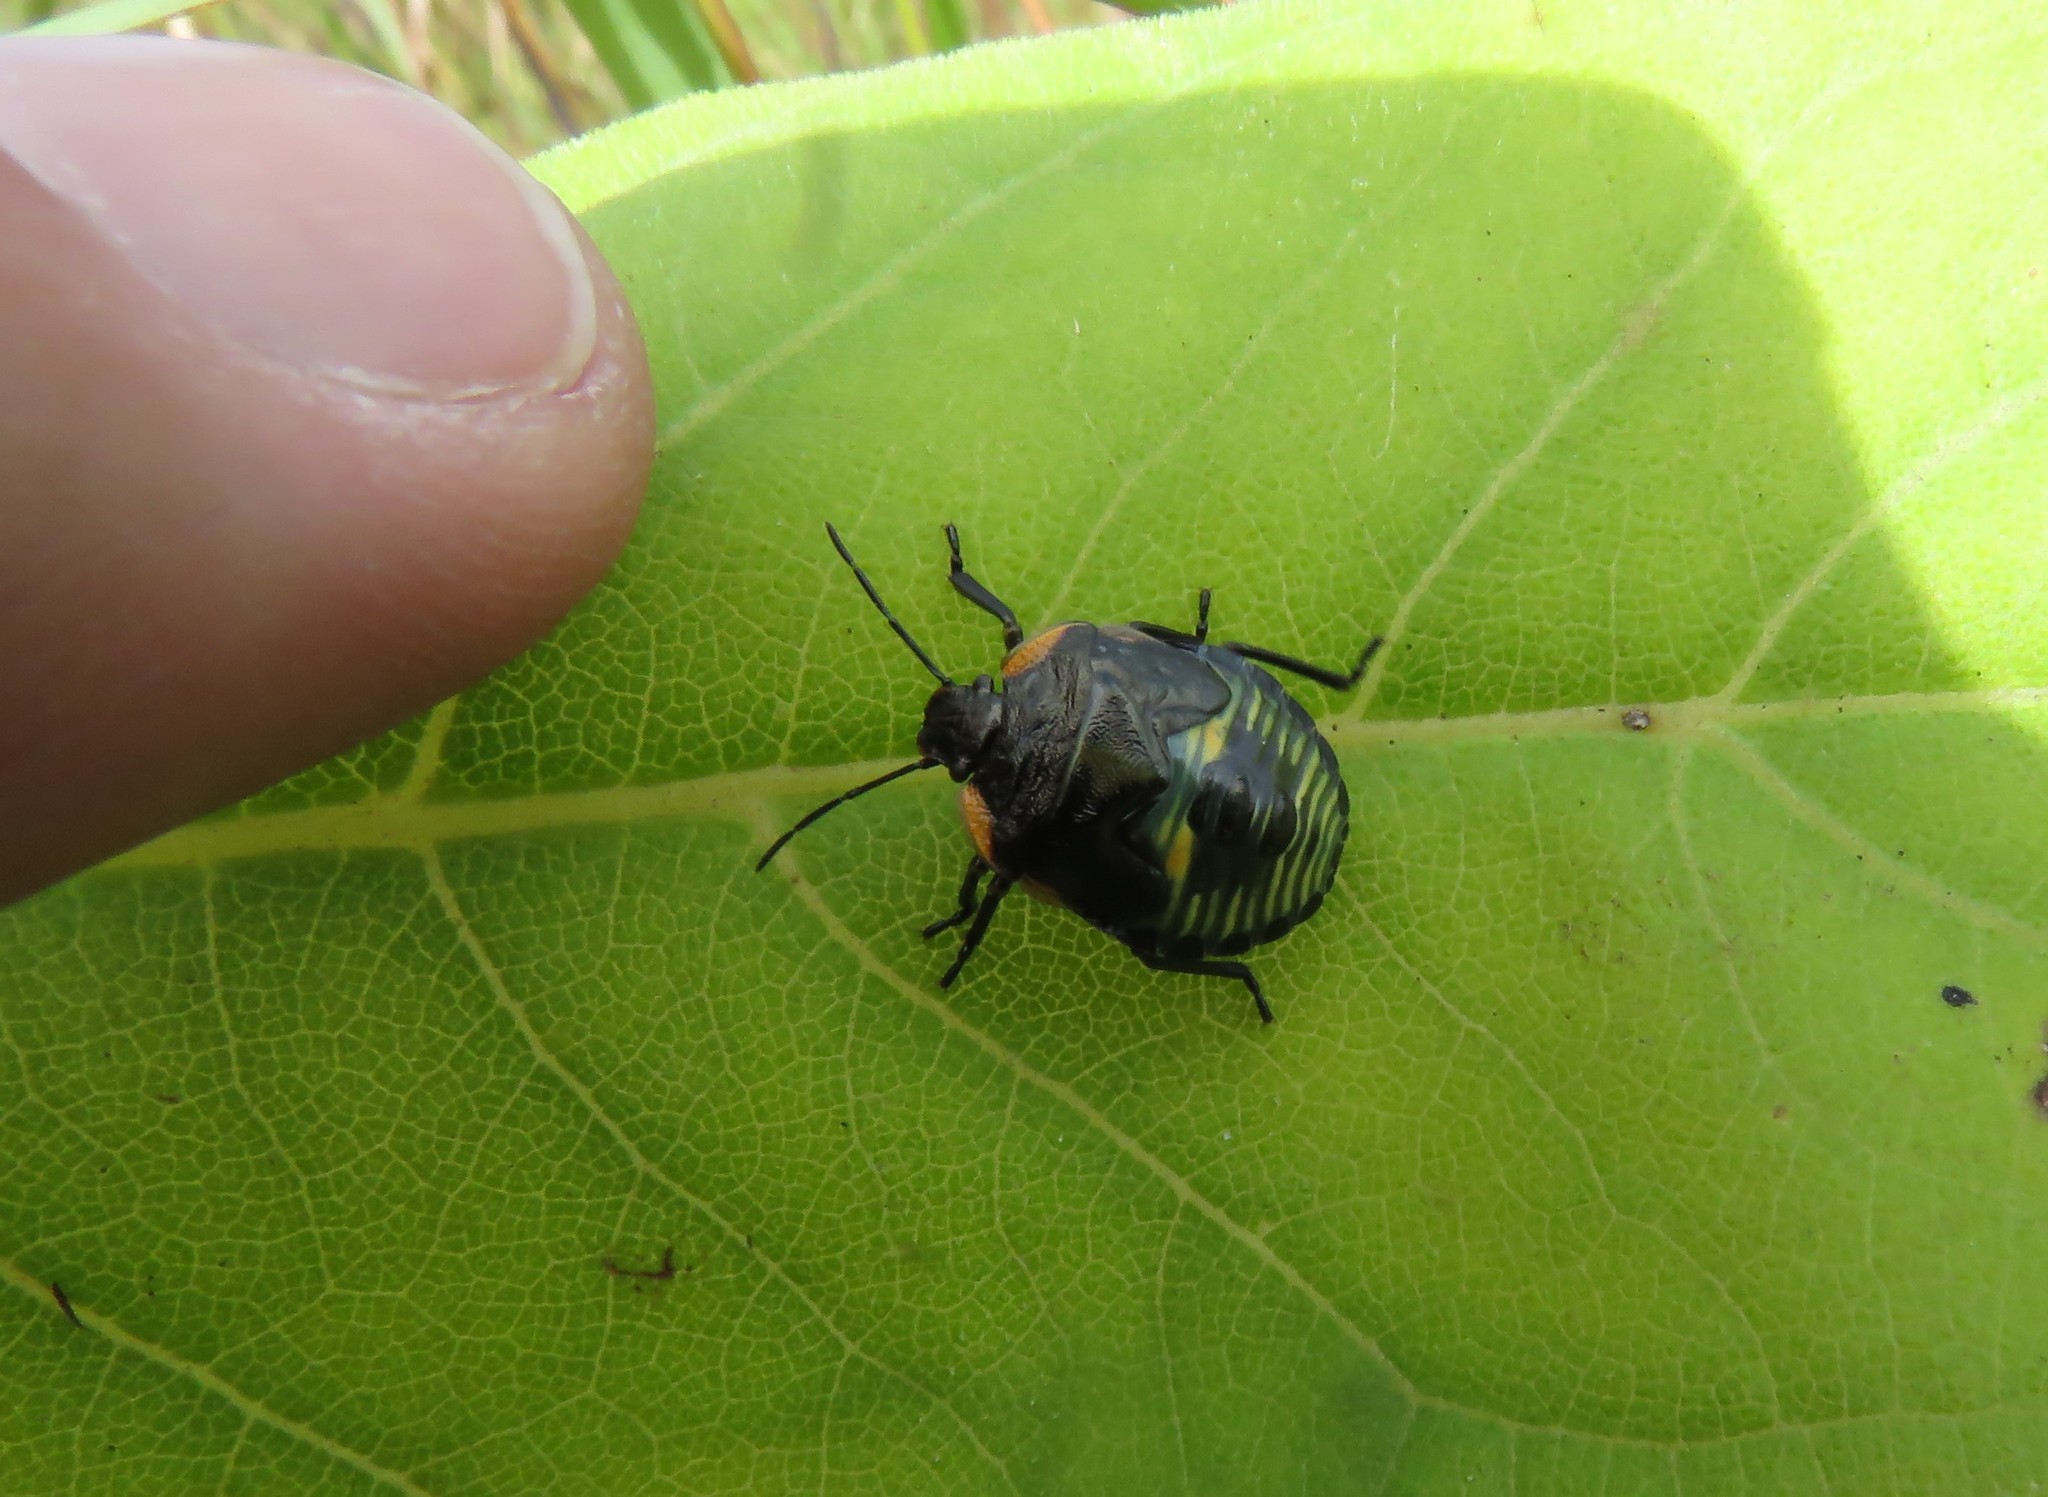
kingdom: Animalia
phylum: Arthropoda
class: Insecta
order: Hemiptera
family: Pentatomidae
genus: Chinavia
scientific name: Chinavia hilaris
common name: Green stink bug
